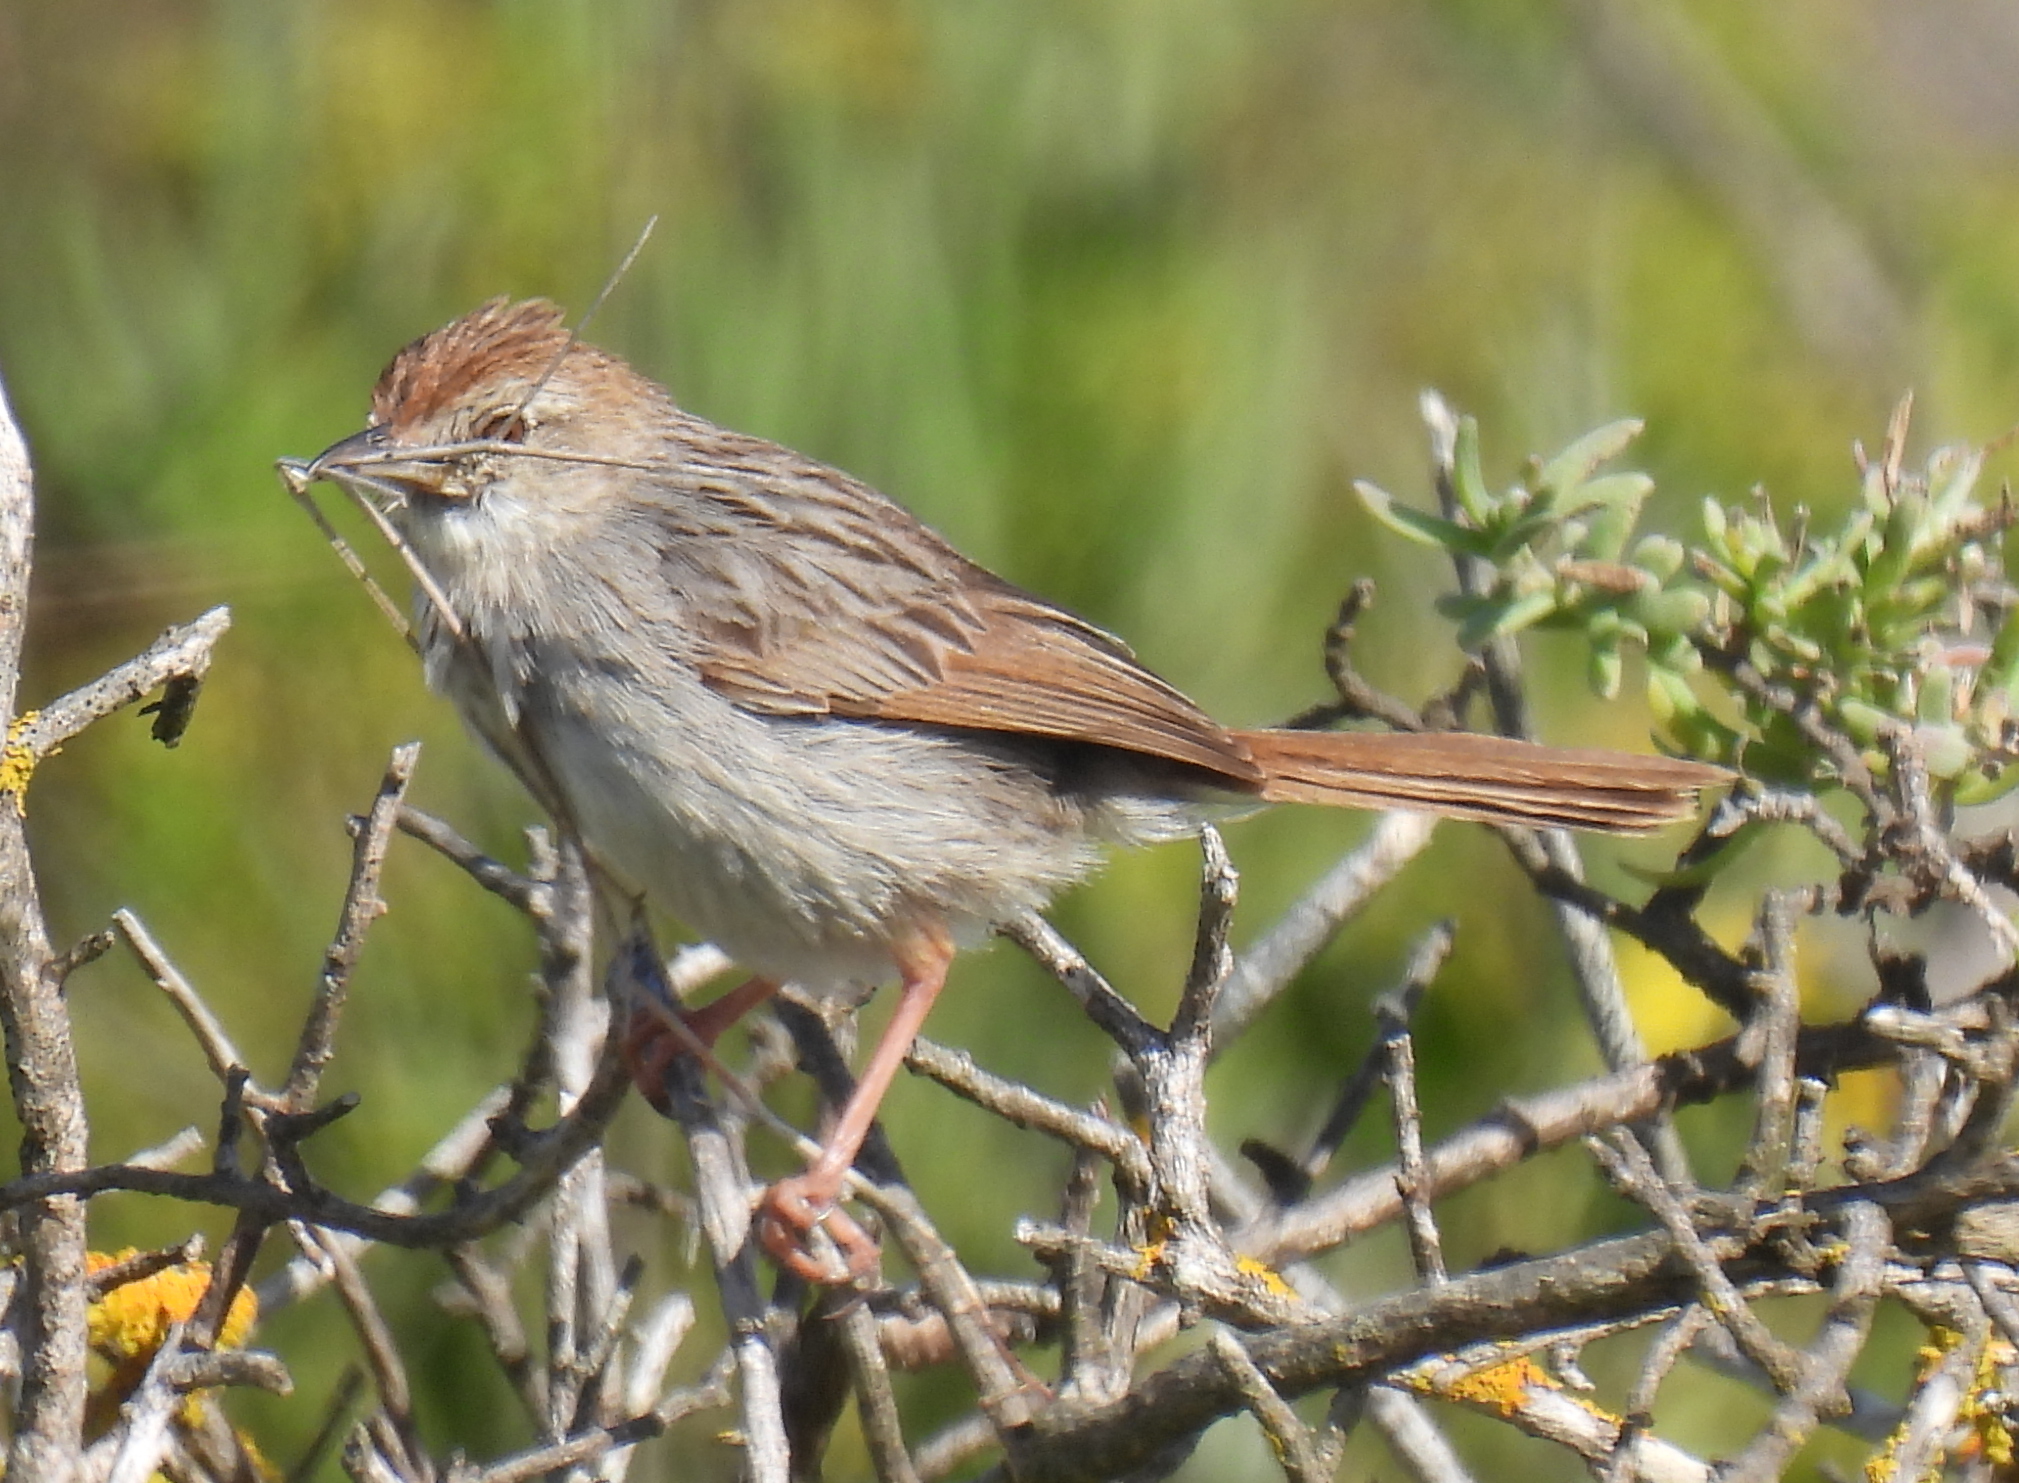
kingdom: Animalia
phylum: Chordata
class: Aves
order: Passeriformes
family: Cisticolidae
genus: Cisticola
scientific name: Cisticola subruficapilla
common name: Grey-backed cisticola
